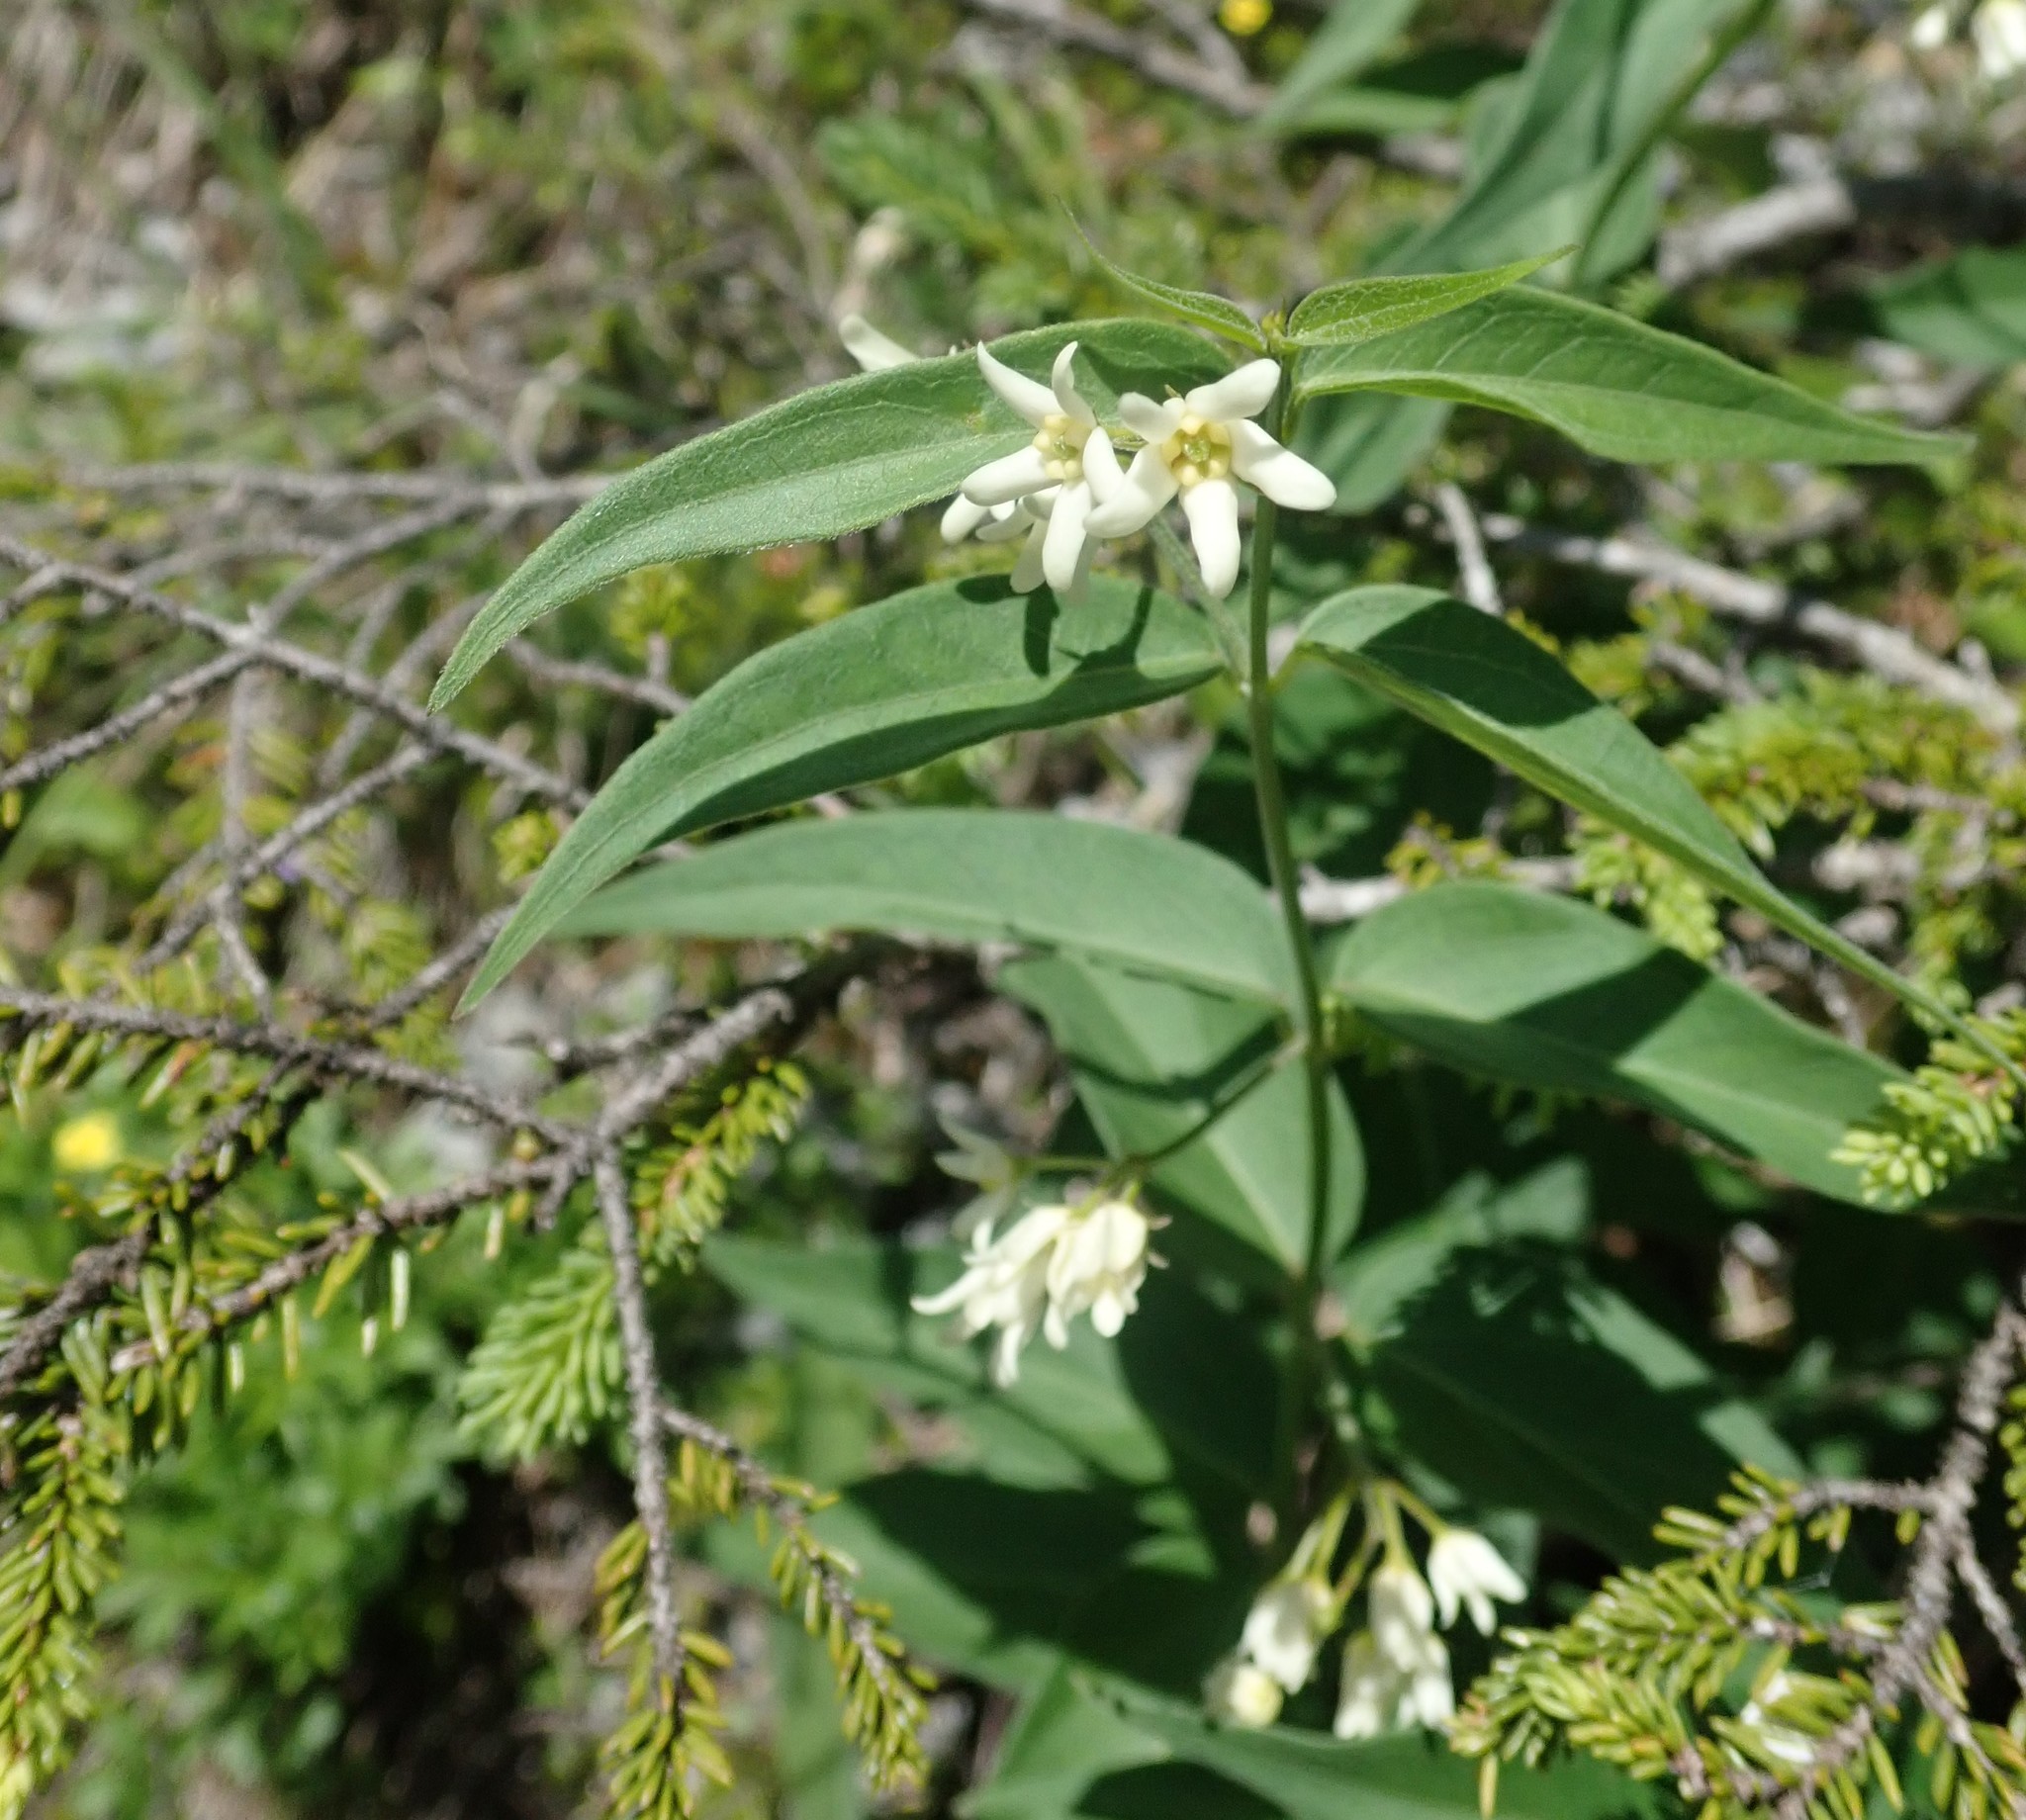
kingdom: Plantae
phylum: Tracheophyta
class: Magnoliopsida
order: Gentianales
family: Apocynaceae
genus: Vincetoxicum
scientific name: Vincetoxicum hirundinaria
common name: White swallowwort
